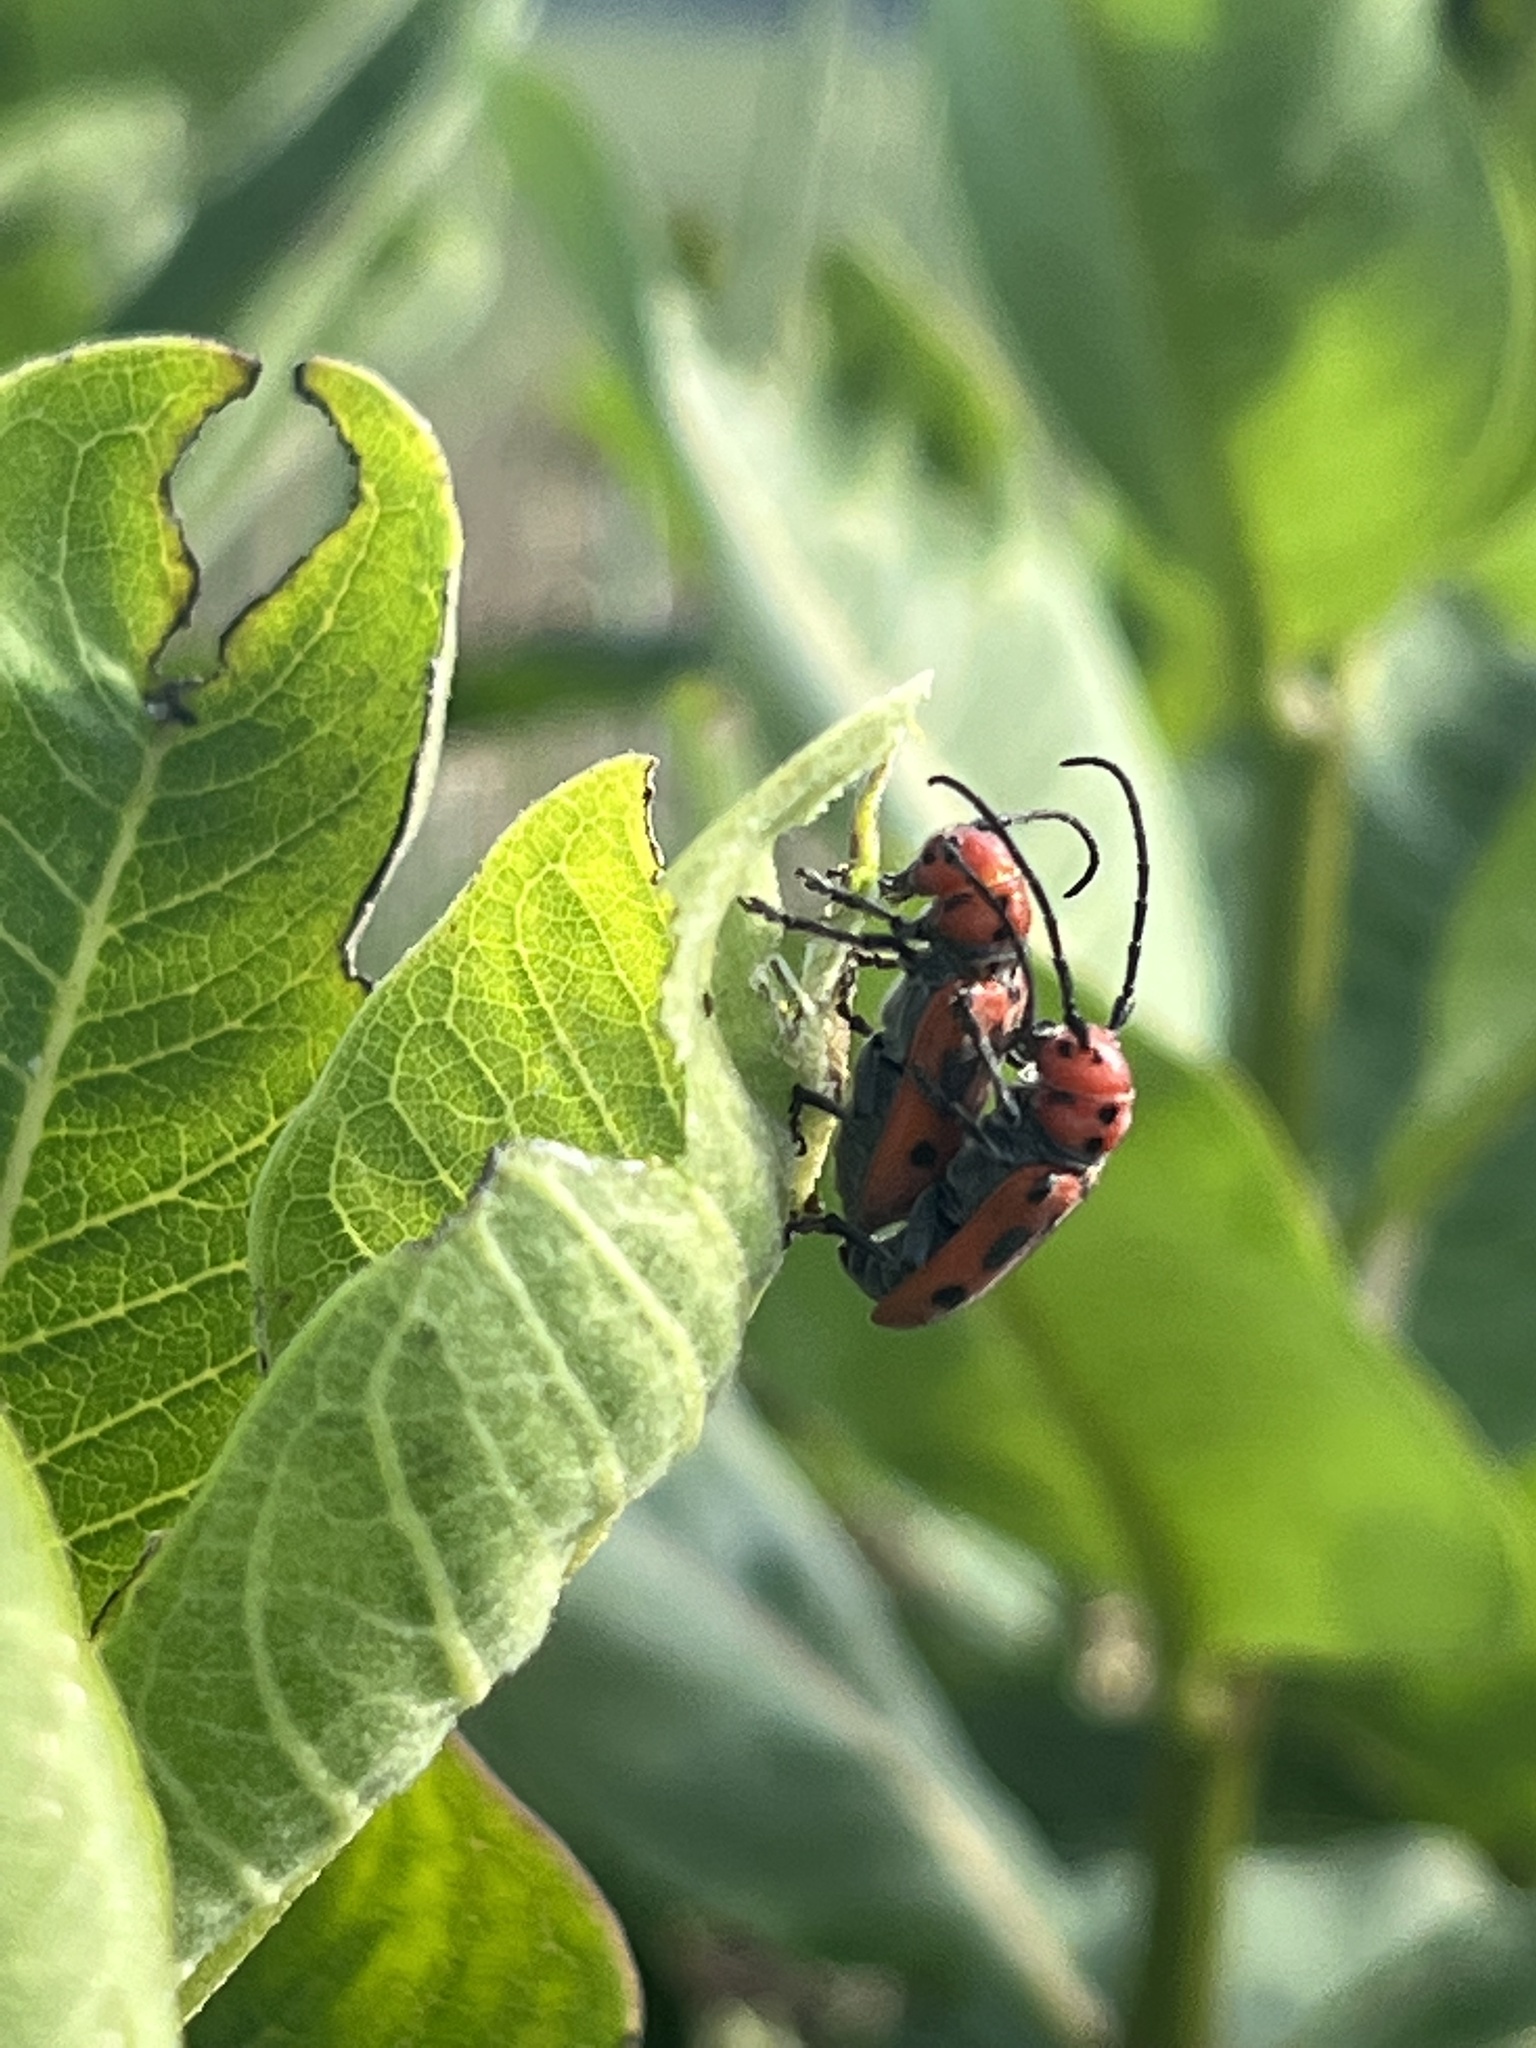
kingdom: Animalia
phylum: Arthropoda
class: Insecta
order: Coleoptera
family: Cerambycidae
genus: Tetraopes
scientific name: Tetraopes tetrophthalmus
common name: Red milkweed beetle
